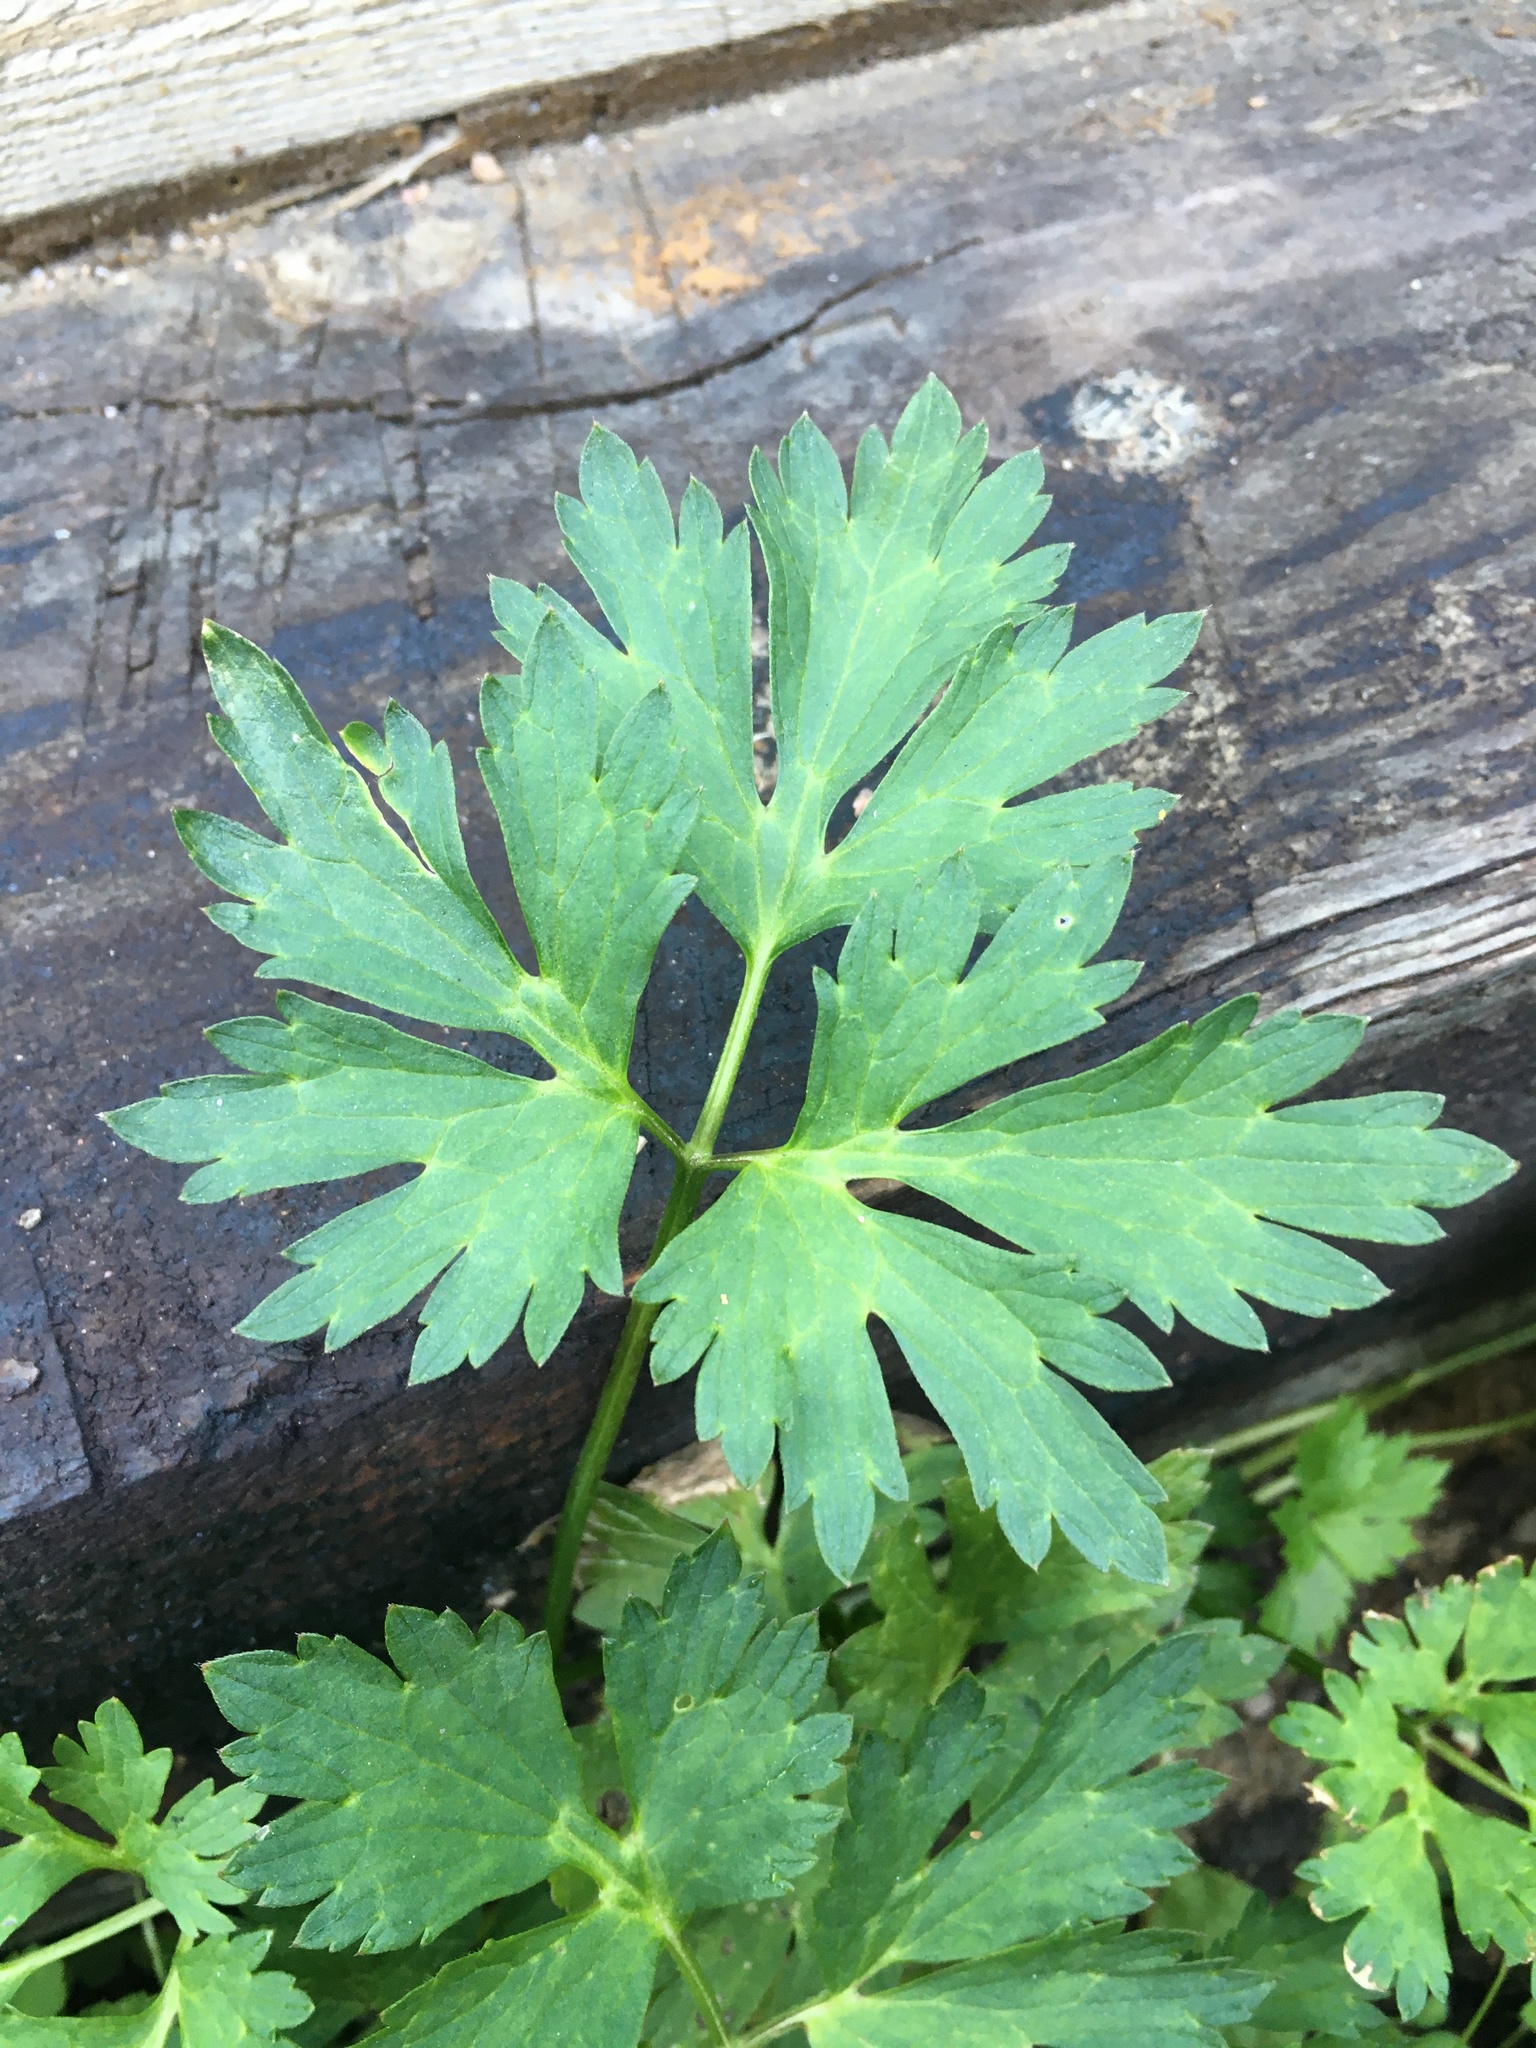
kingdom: Plantae
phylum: Tracheophyta
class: Magnoliopsida
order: Ranunculales
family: Ranunculaceae
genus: Ranunculus
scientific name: Ranunculus repens
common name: Creeping buttercup
